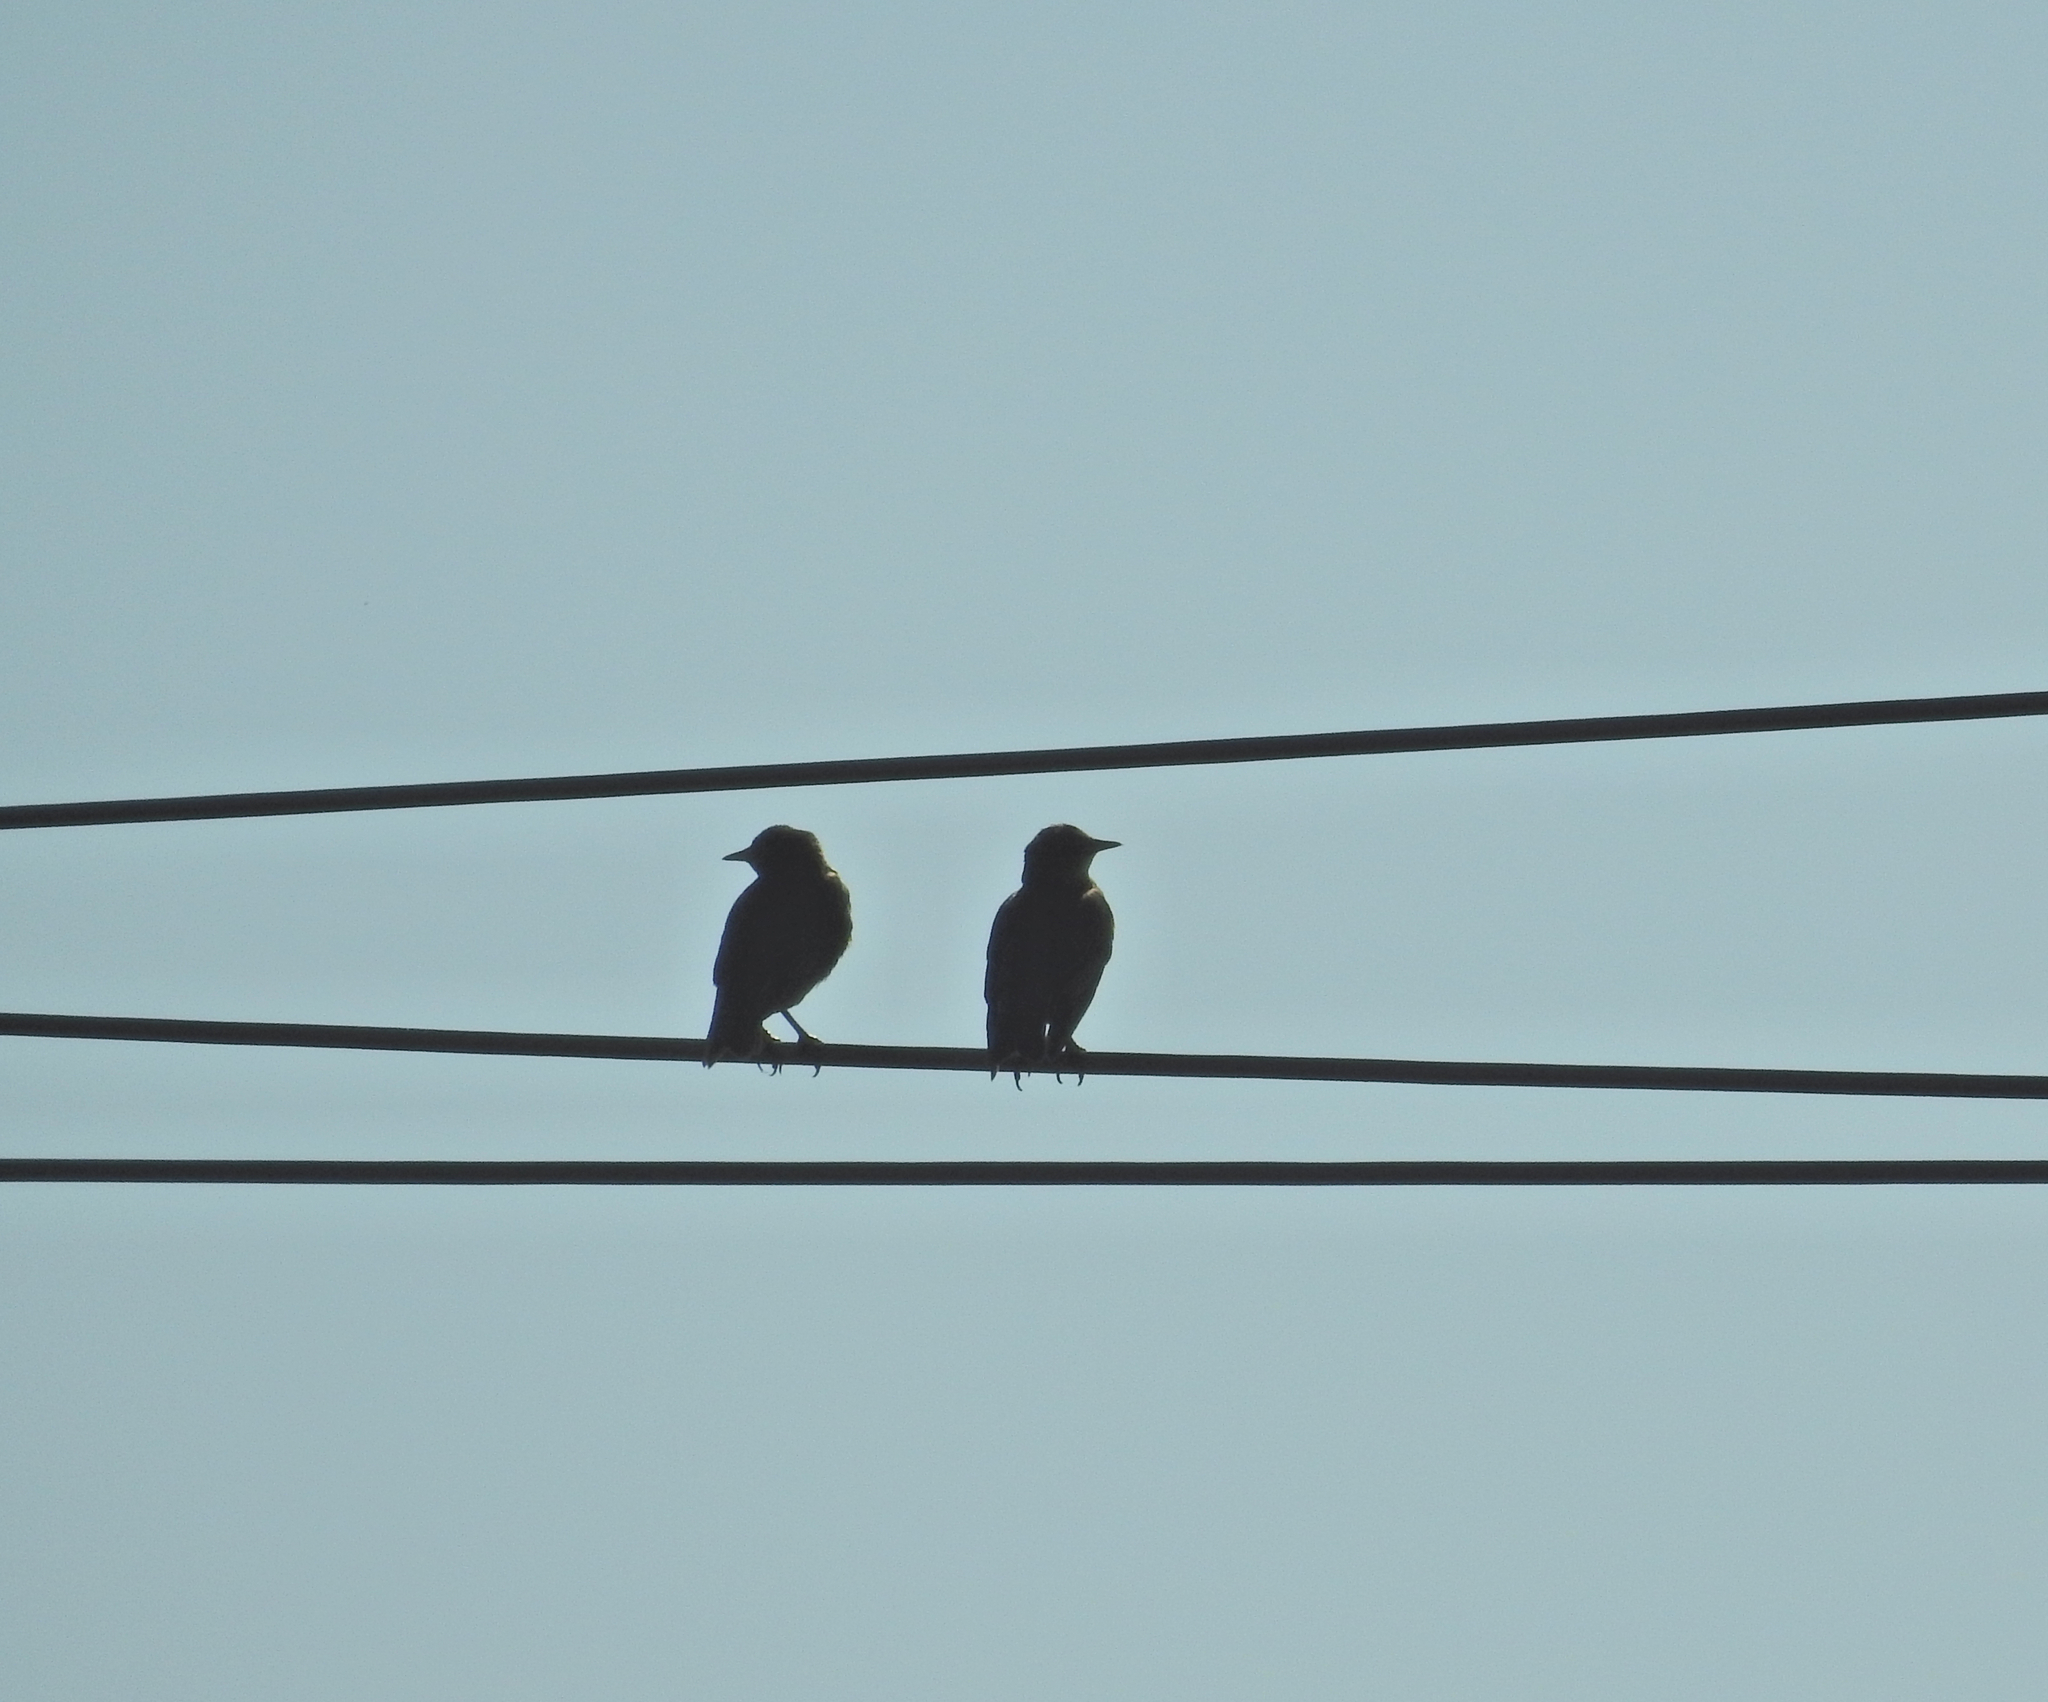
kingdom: Animalia
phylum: Chordata
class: Aves
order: Passeriformes
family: Sturnidae
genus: Sturnus
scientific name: Sturnus vulgaris
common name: Common starling
